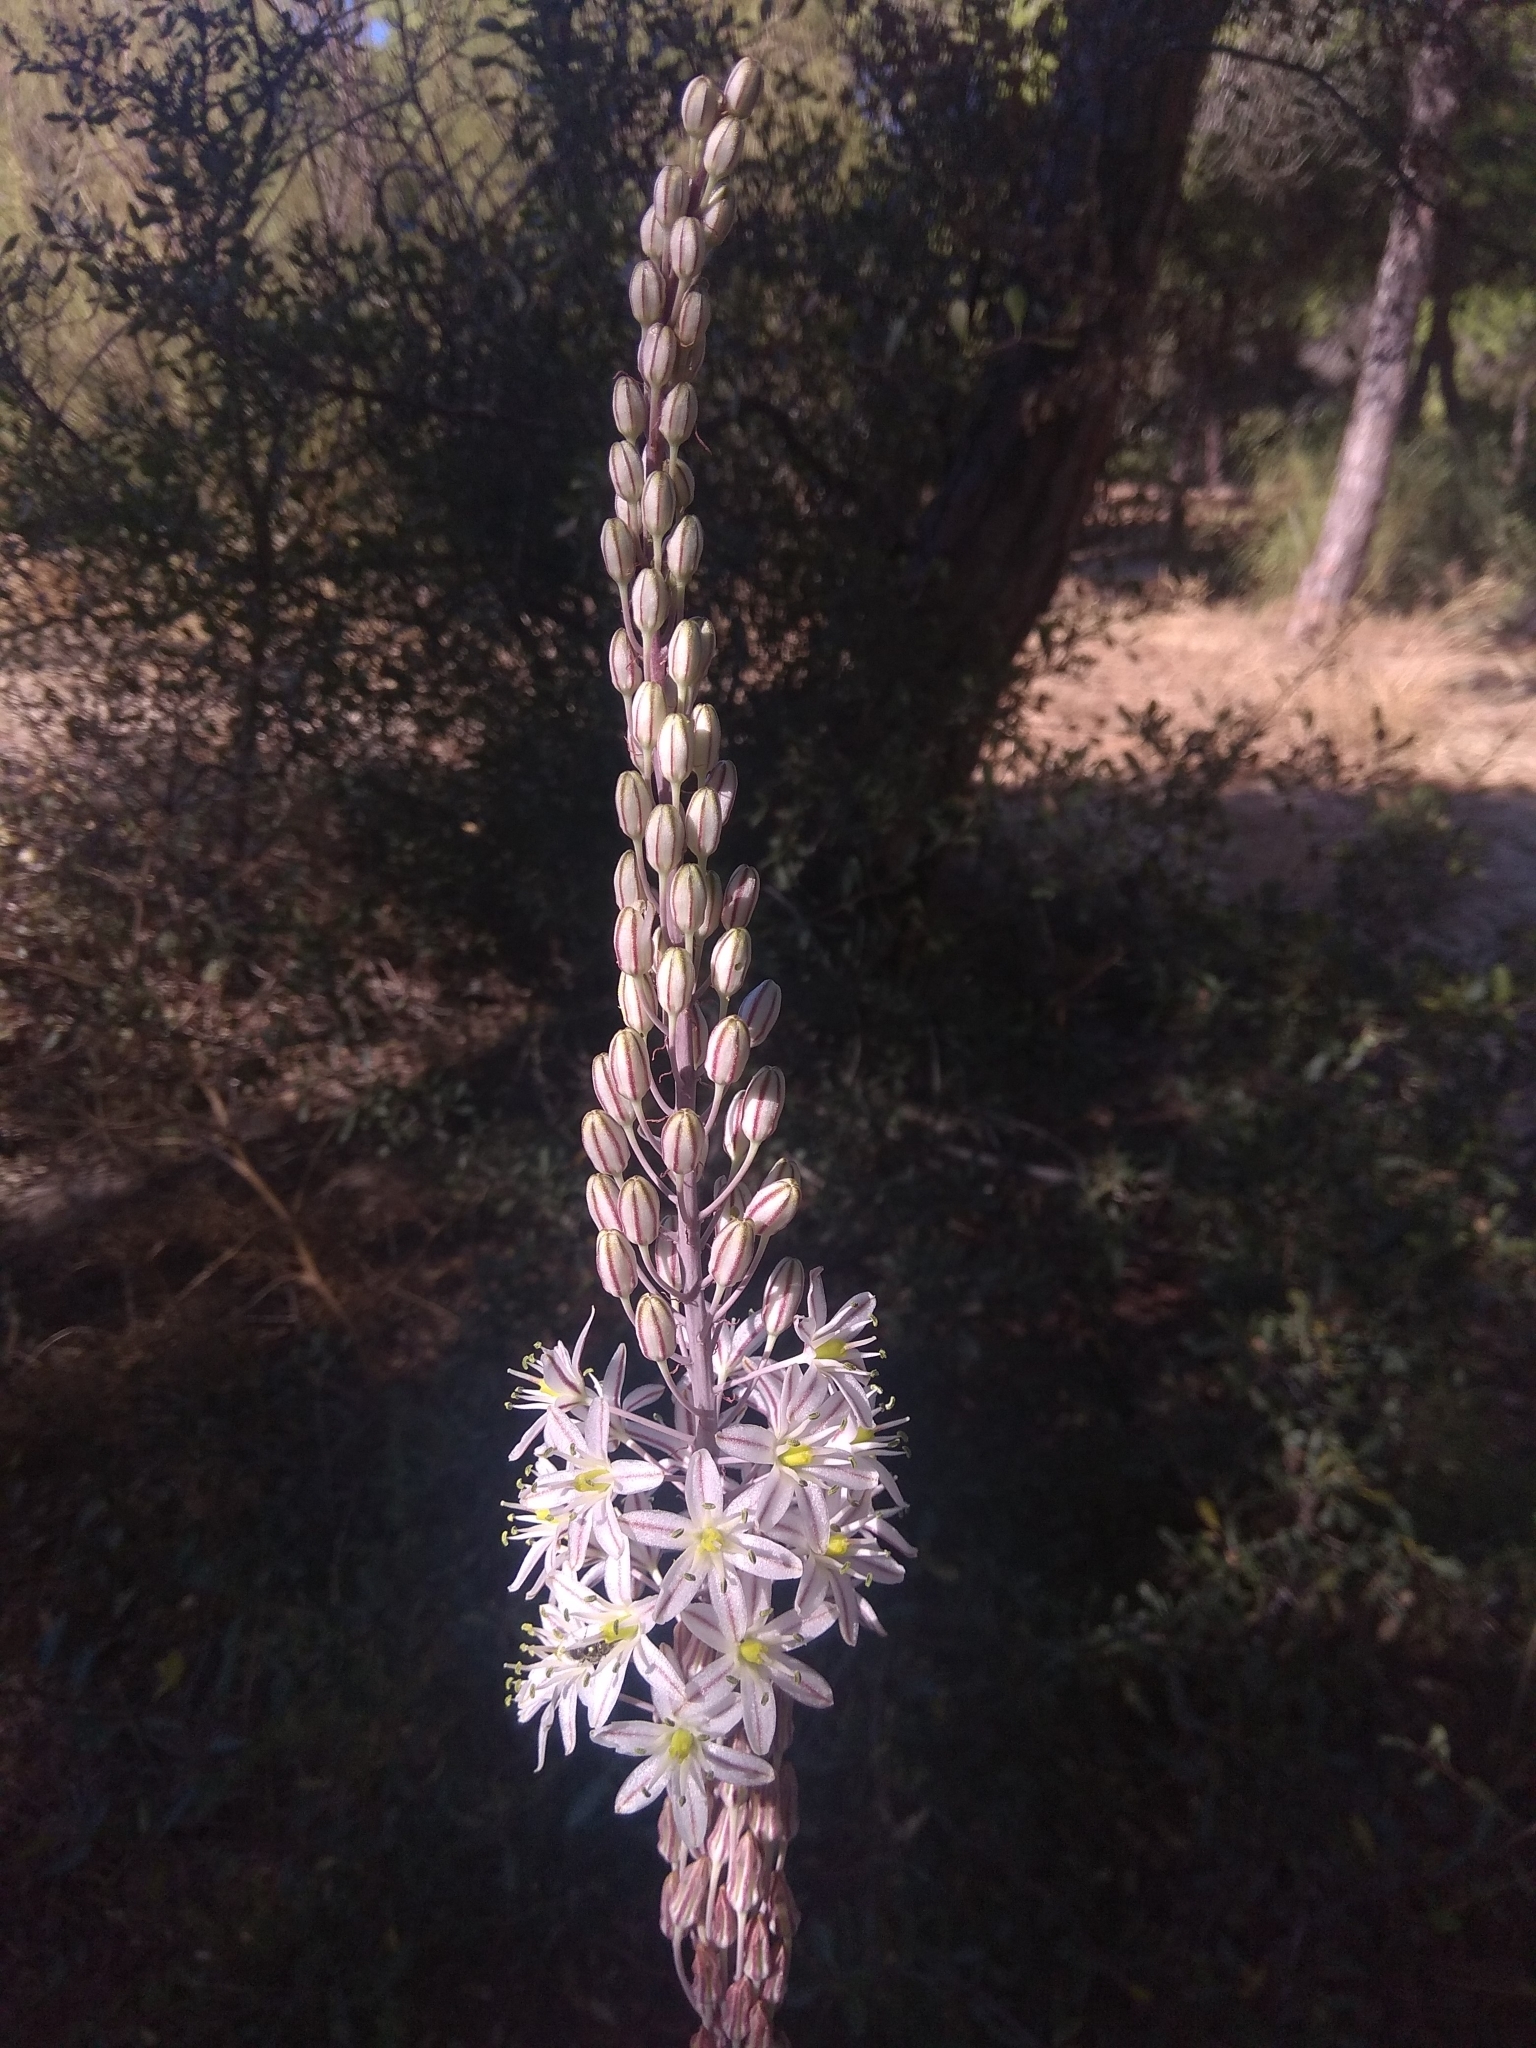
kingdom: Plantae
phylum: Tracheophyta
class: Liliopsida
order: Asparagales
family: Asparagaceae
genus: Drimia
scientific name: Drimia maritima
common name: Maritime squill
